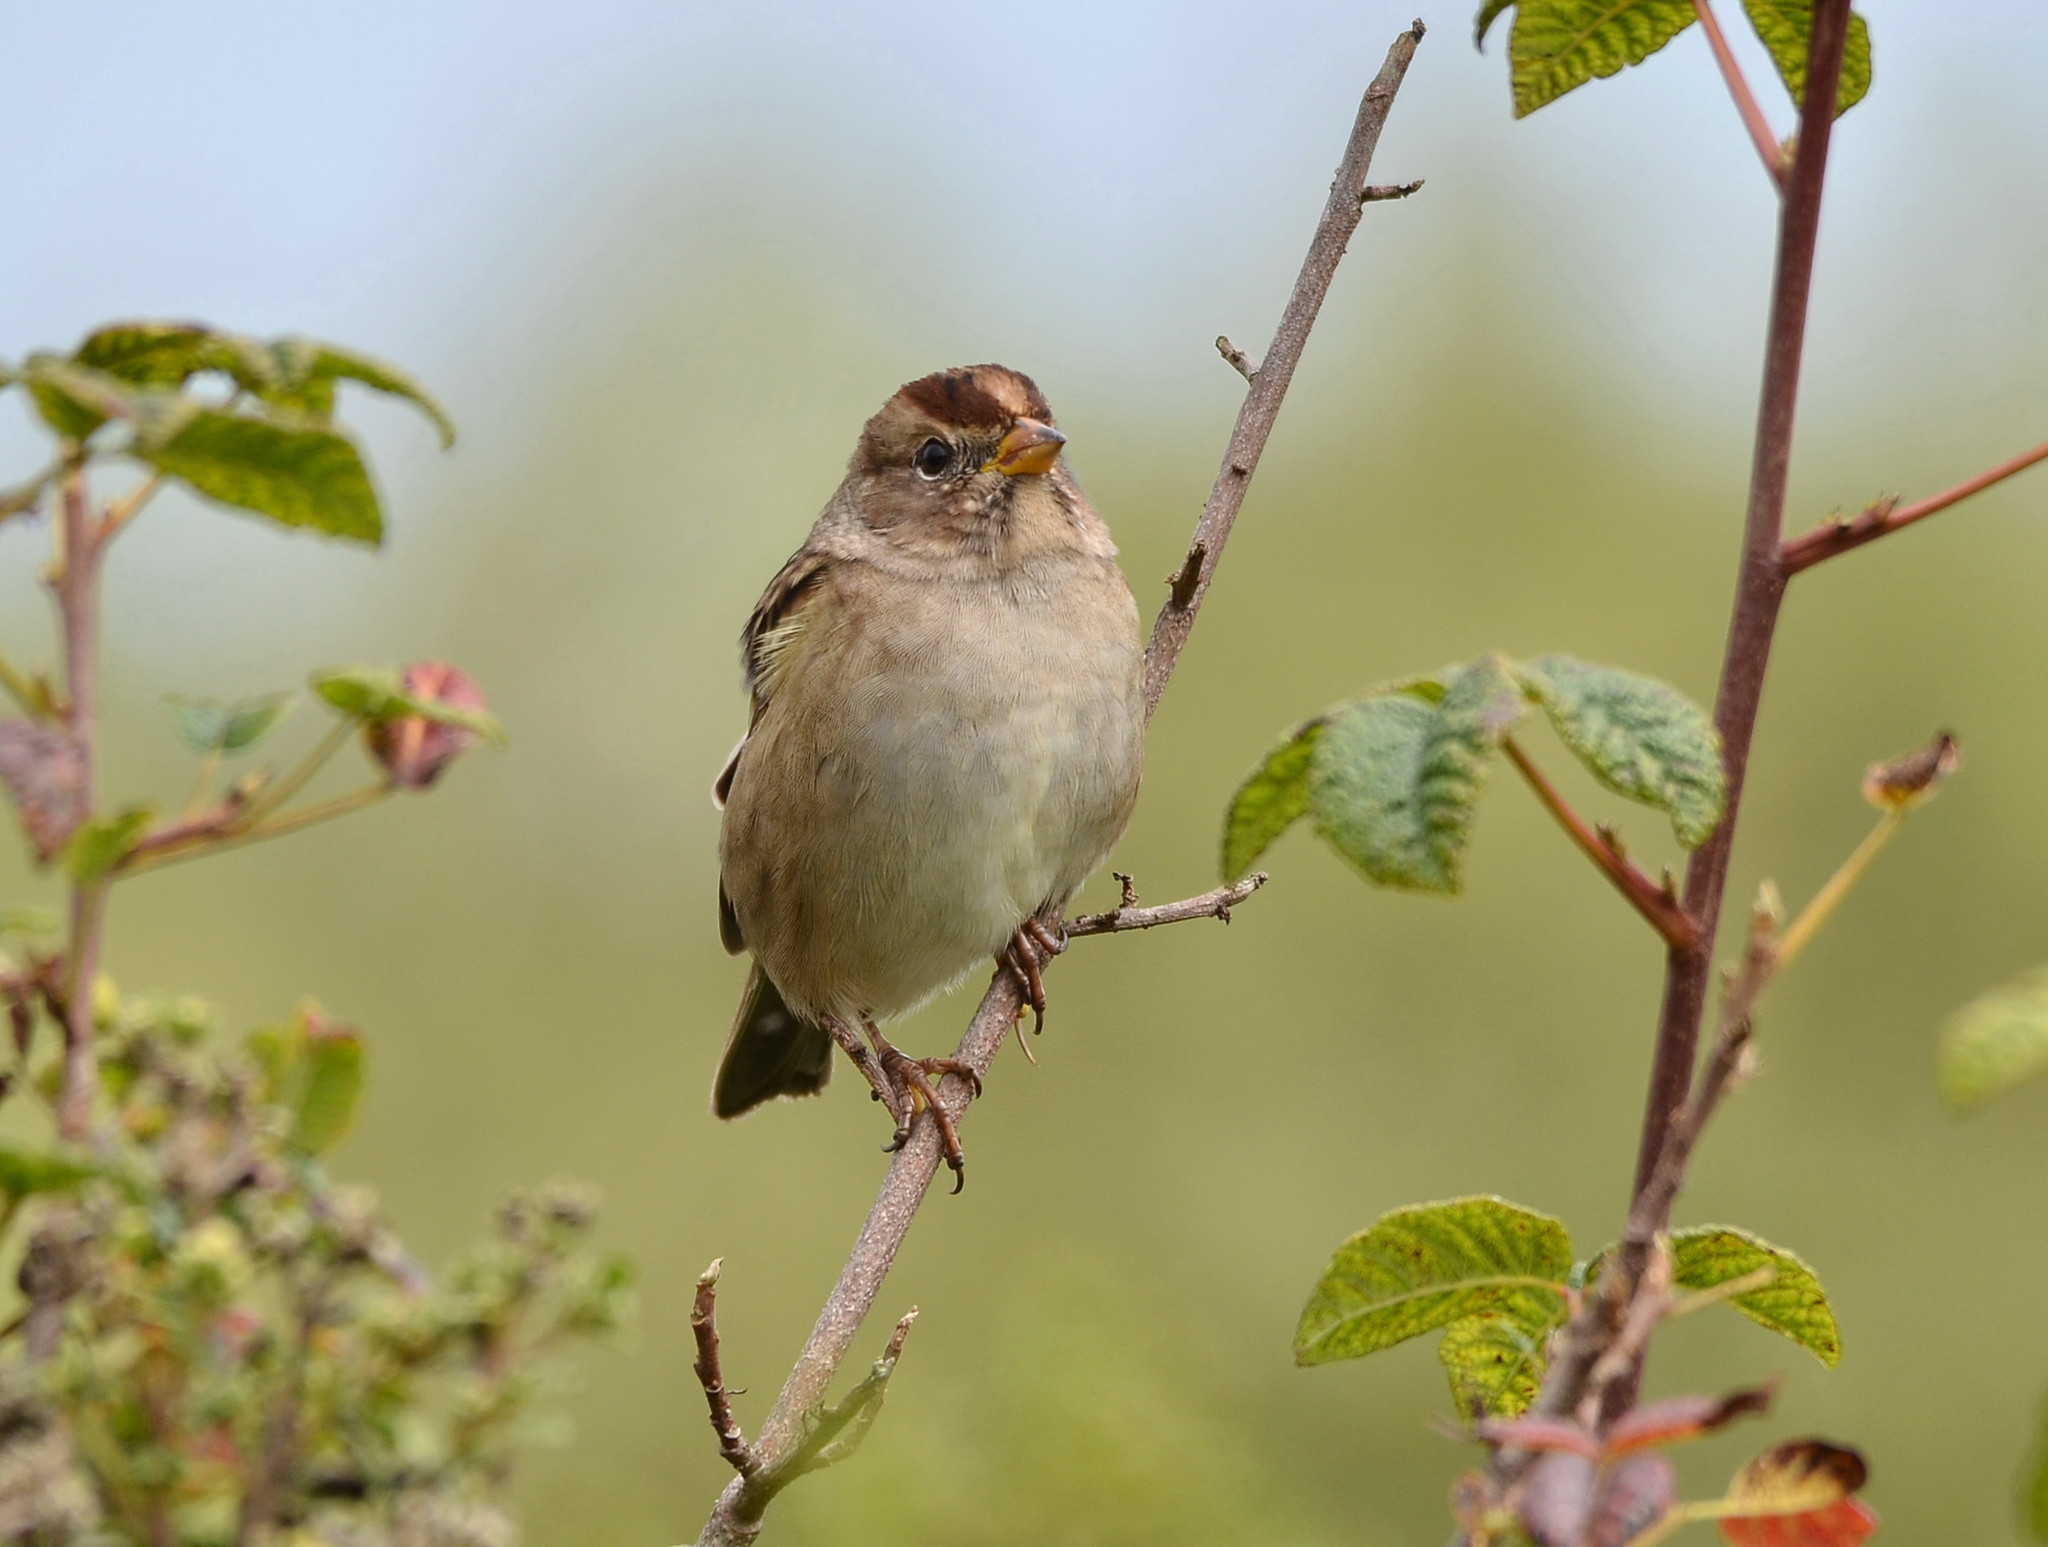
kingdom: Animalia
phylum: Chordata
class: Aves
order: Passeriformes
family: Passerellidae
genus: Zonotrichia
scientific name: Zonotrichia leucophrys
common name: White-crowned sparrow
